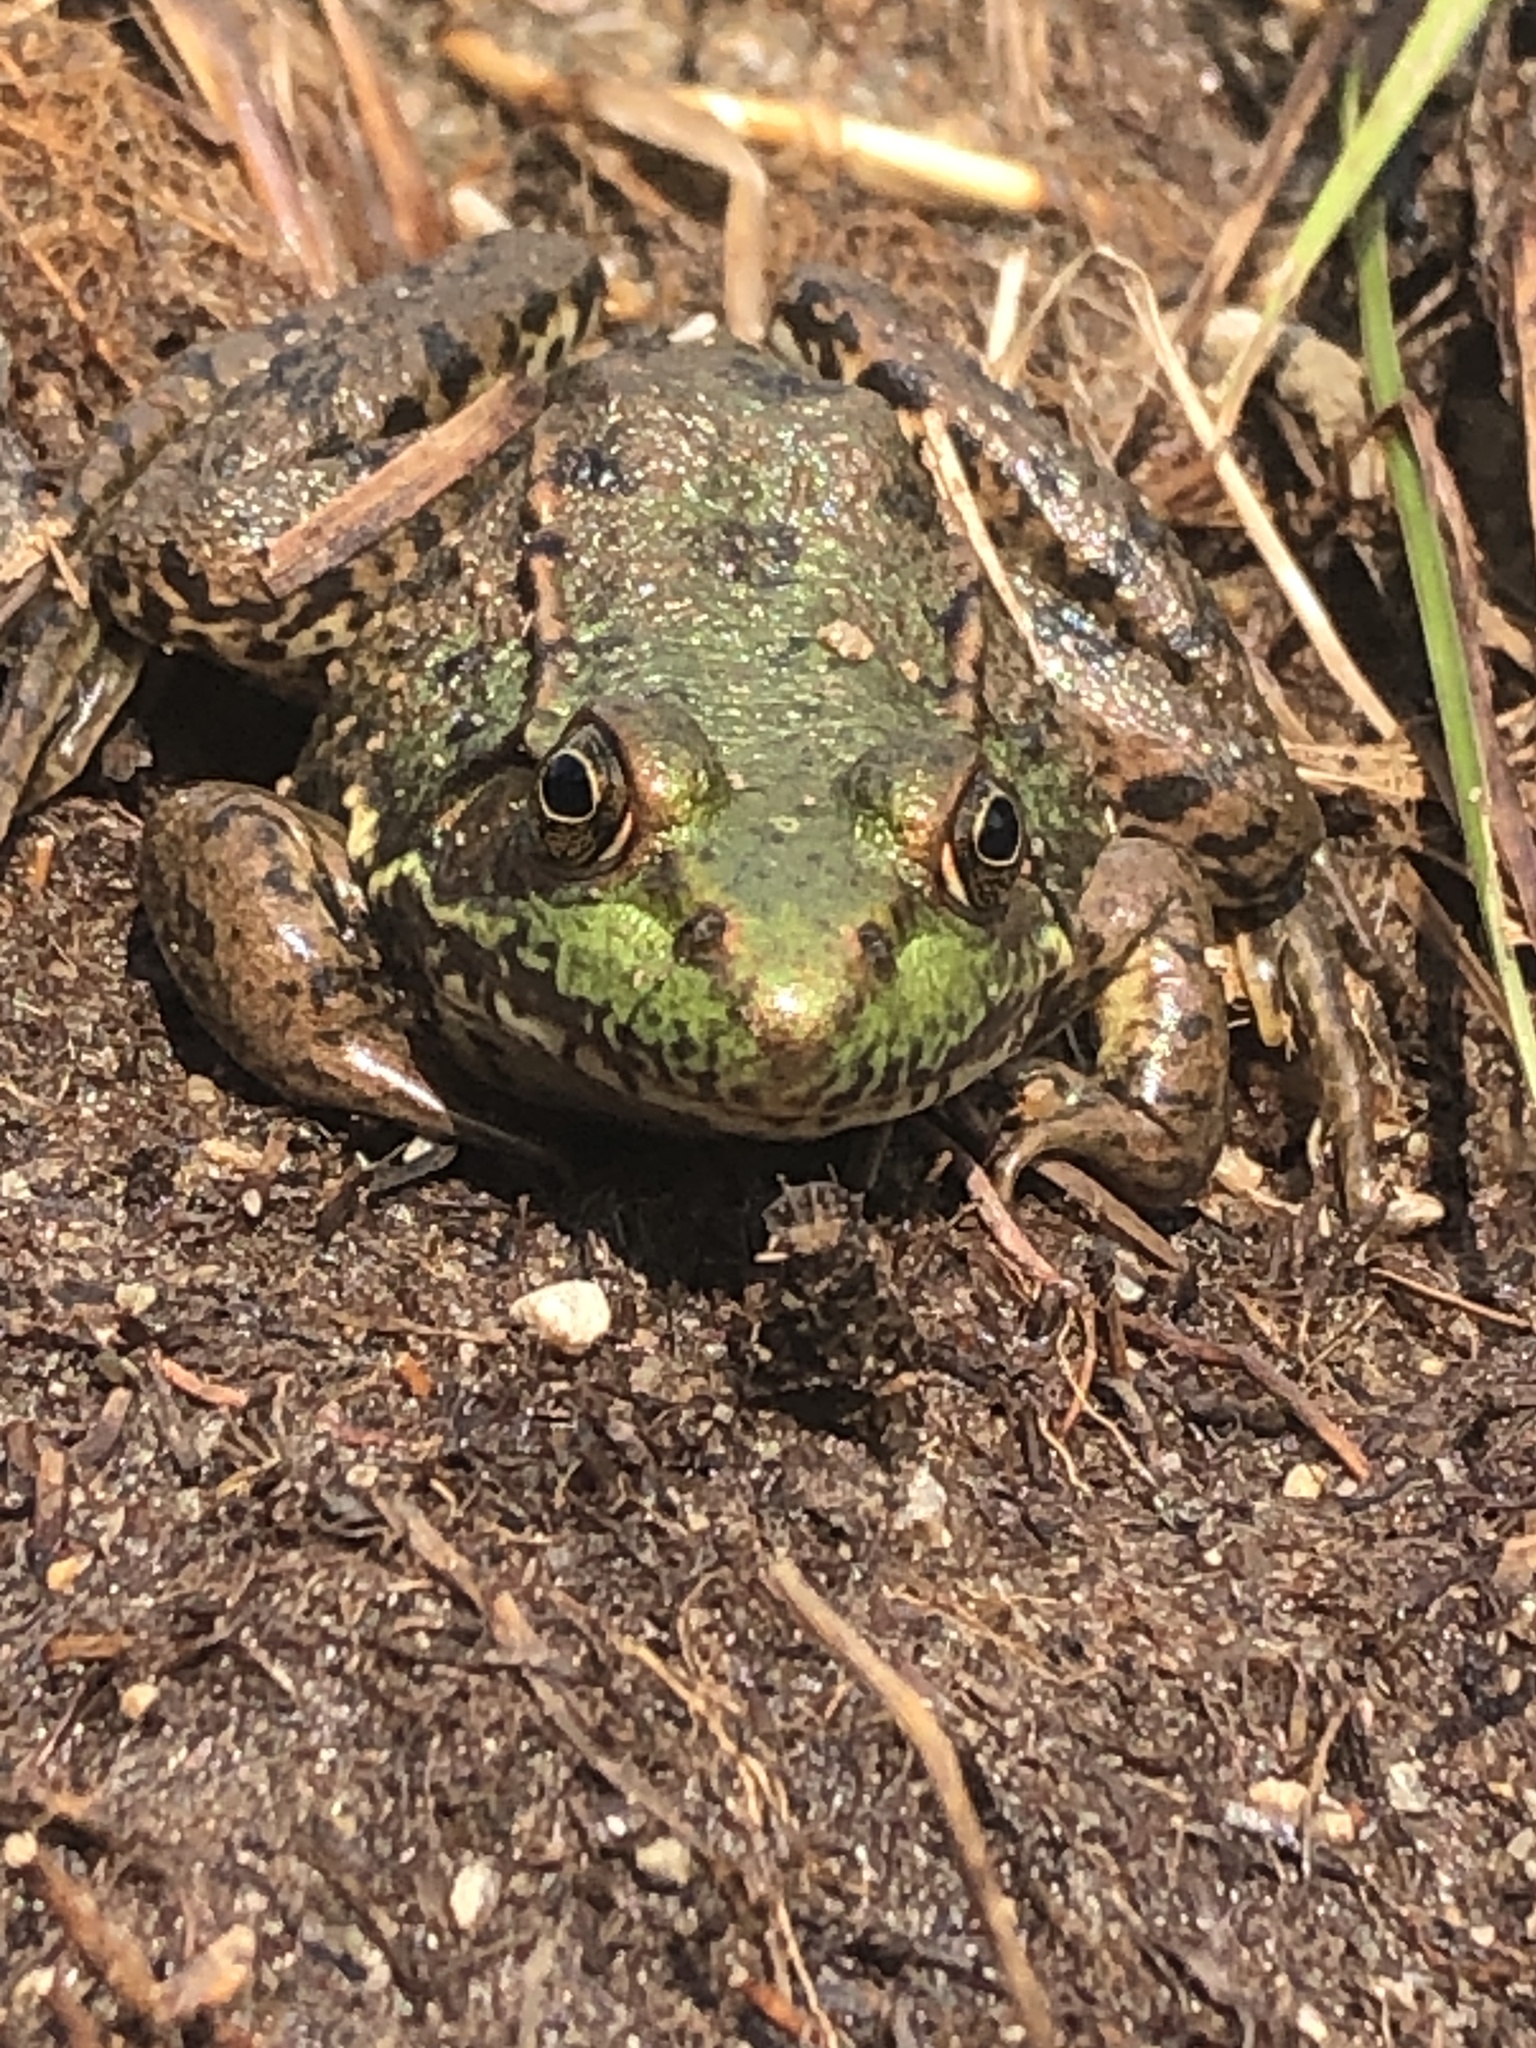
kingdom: Animalia
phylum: Chordata
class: Amphibia
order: Anura
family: Ranidae
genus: Lithobates
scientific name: Lithobates clamitans
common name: Green frog
